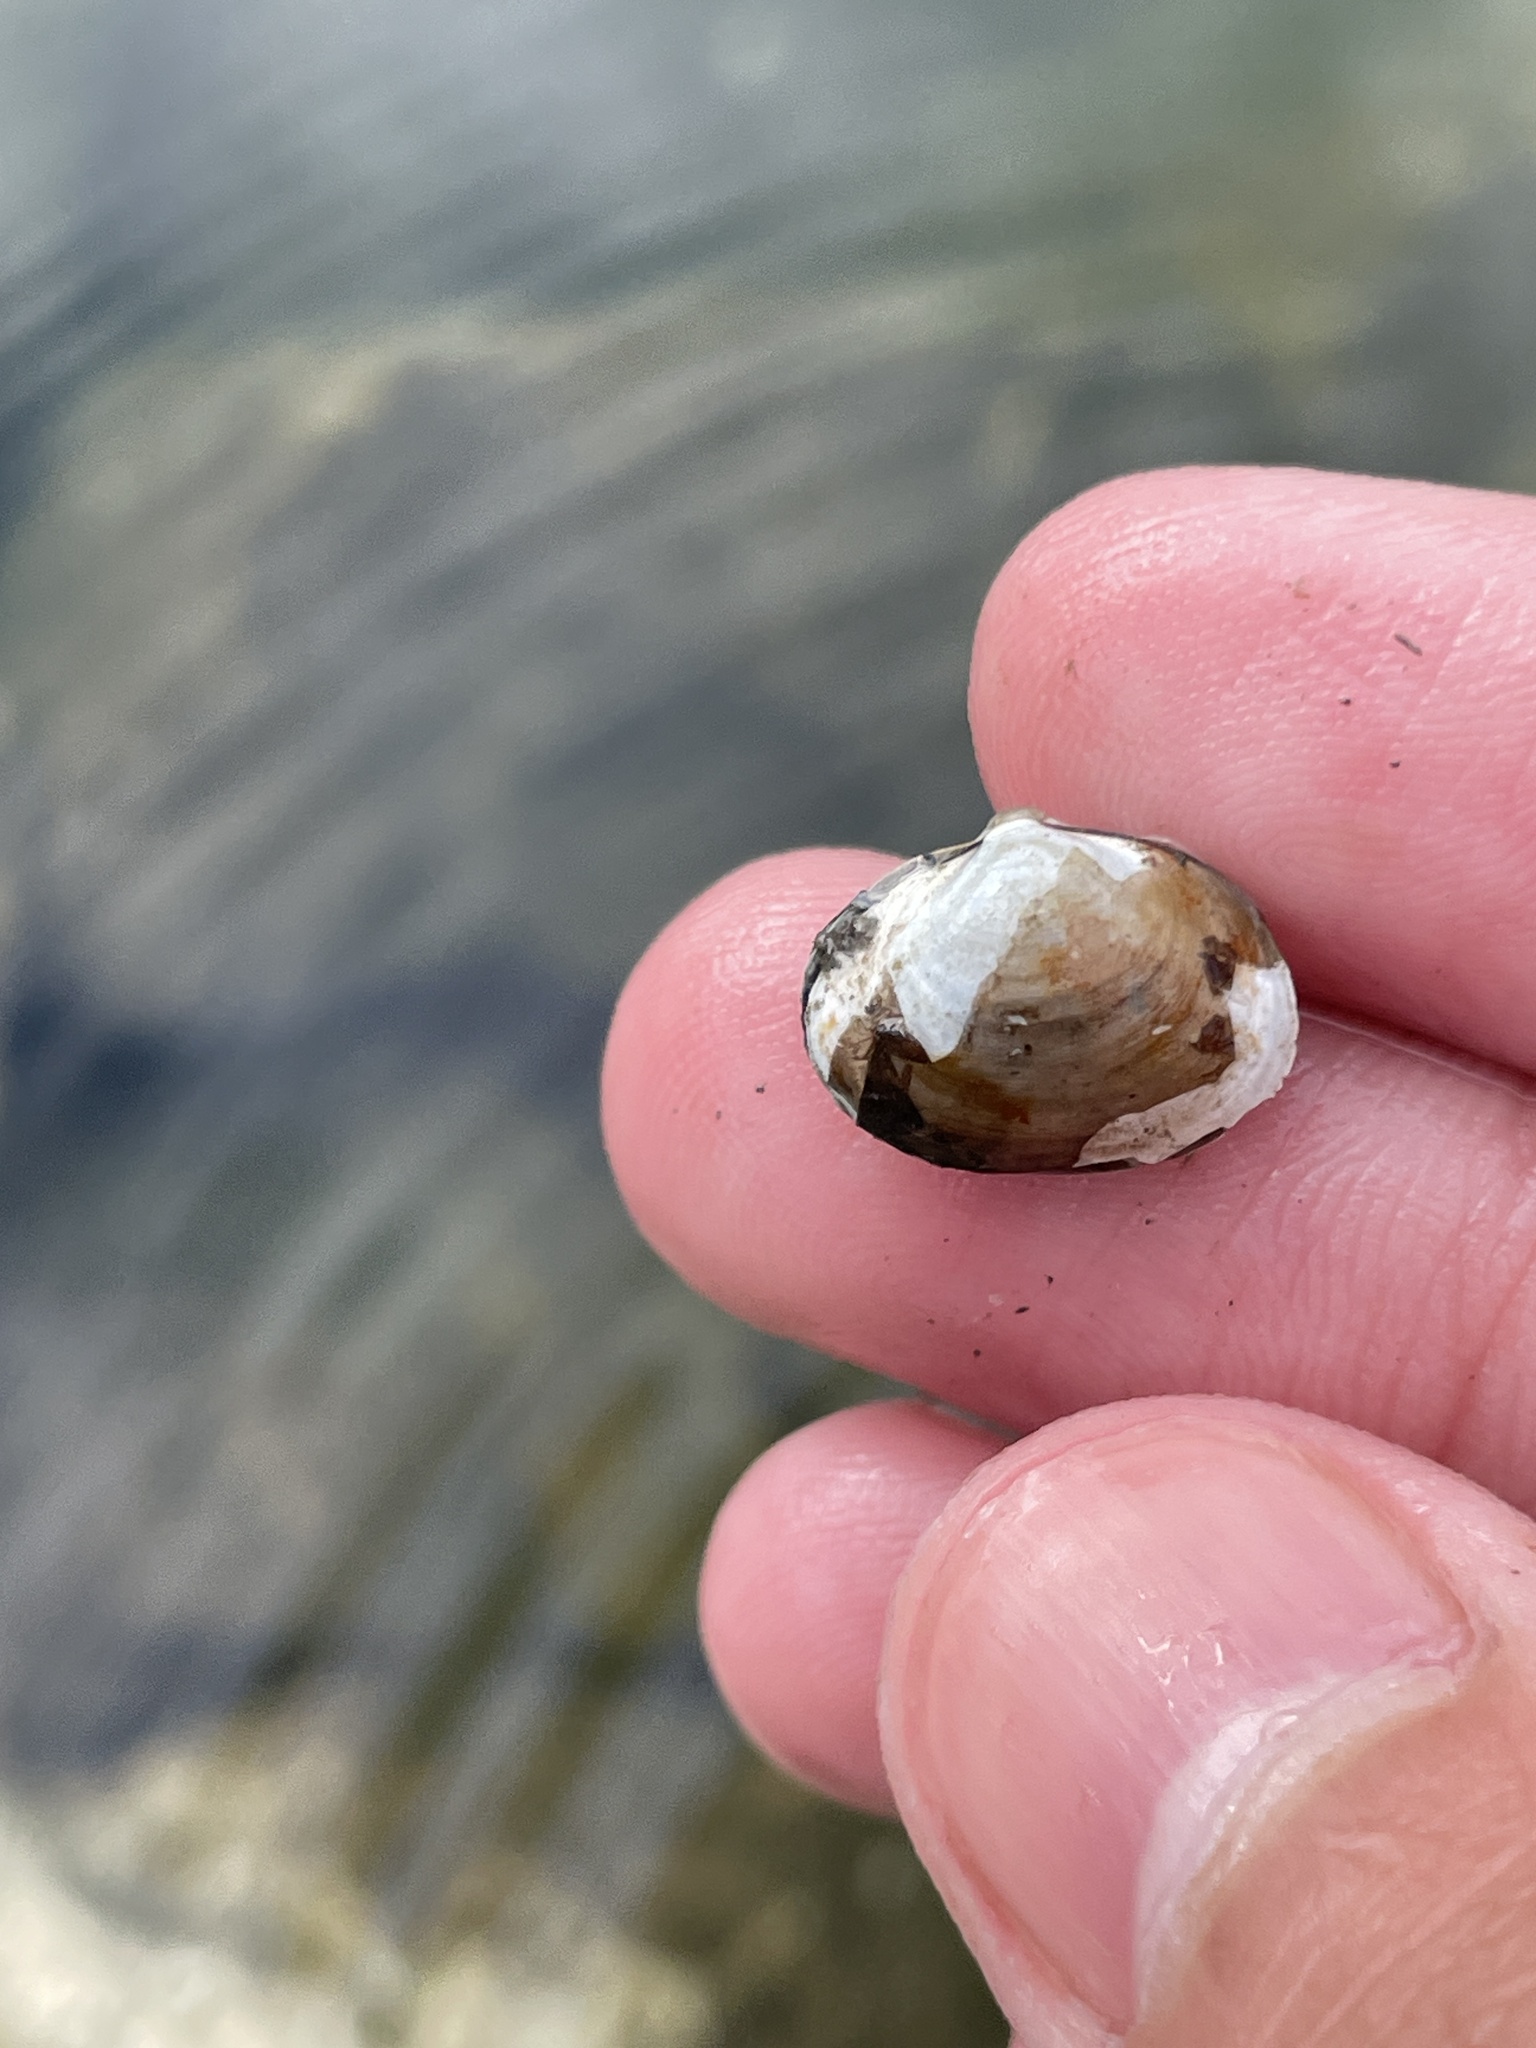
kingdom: Animalia
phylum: Mollusca
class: Bivalvia
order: Sphaeriida
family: Sphaeriidae
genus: Musculium
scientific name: Musculium lacustre
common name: Lake fingernailclam
